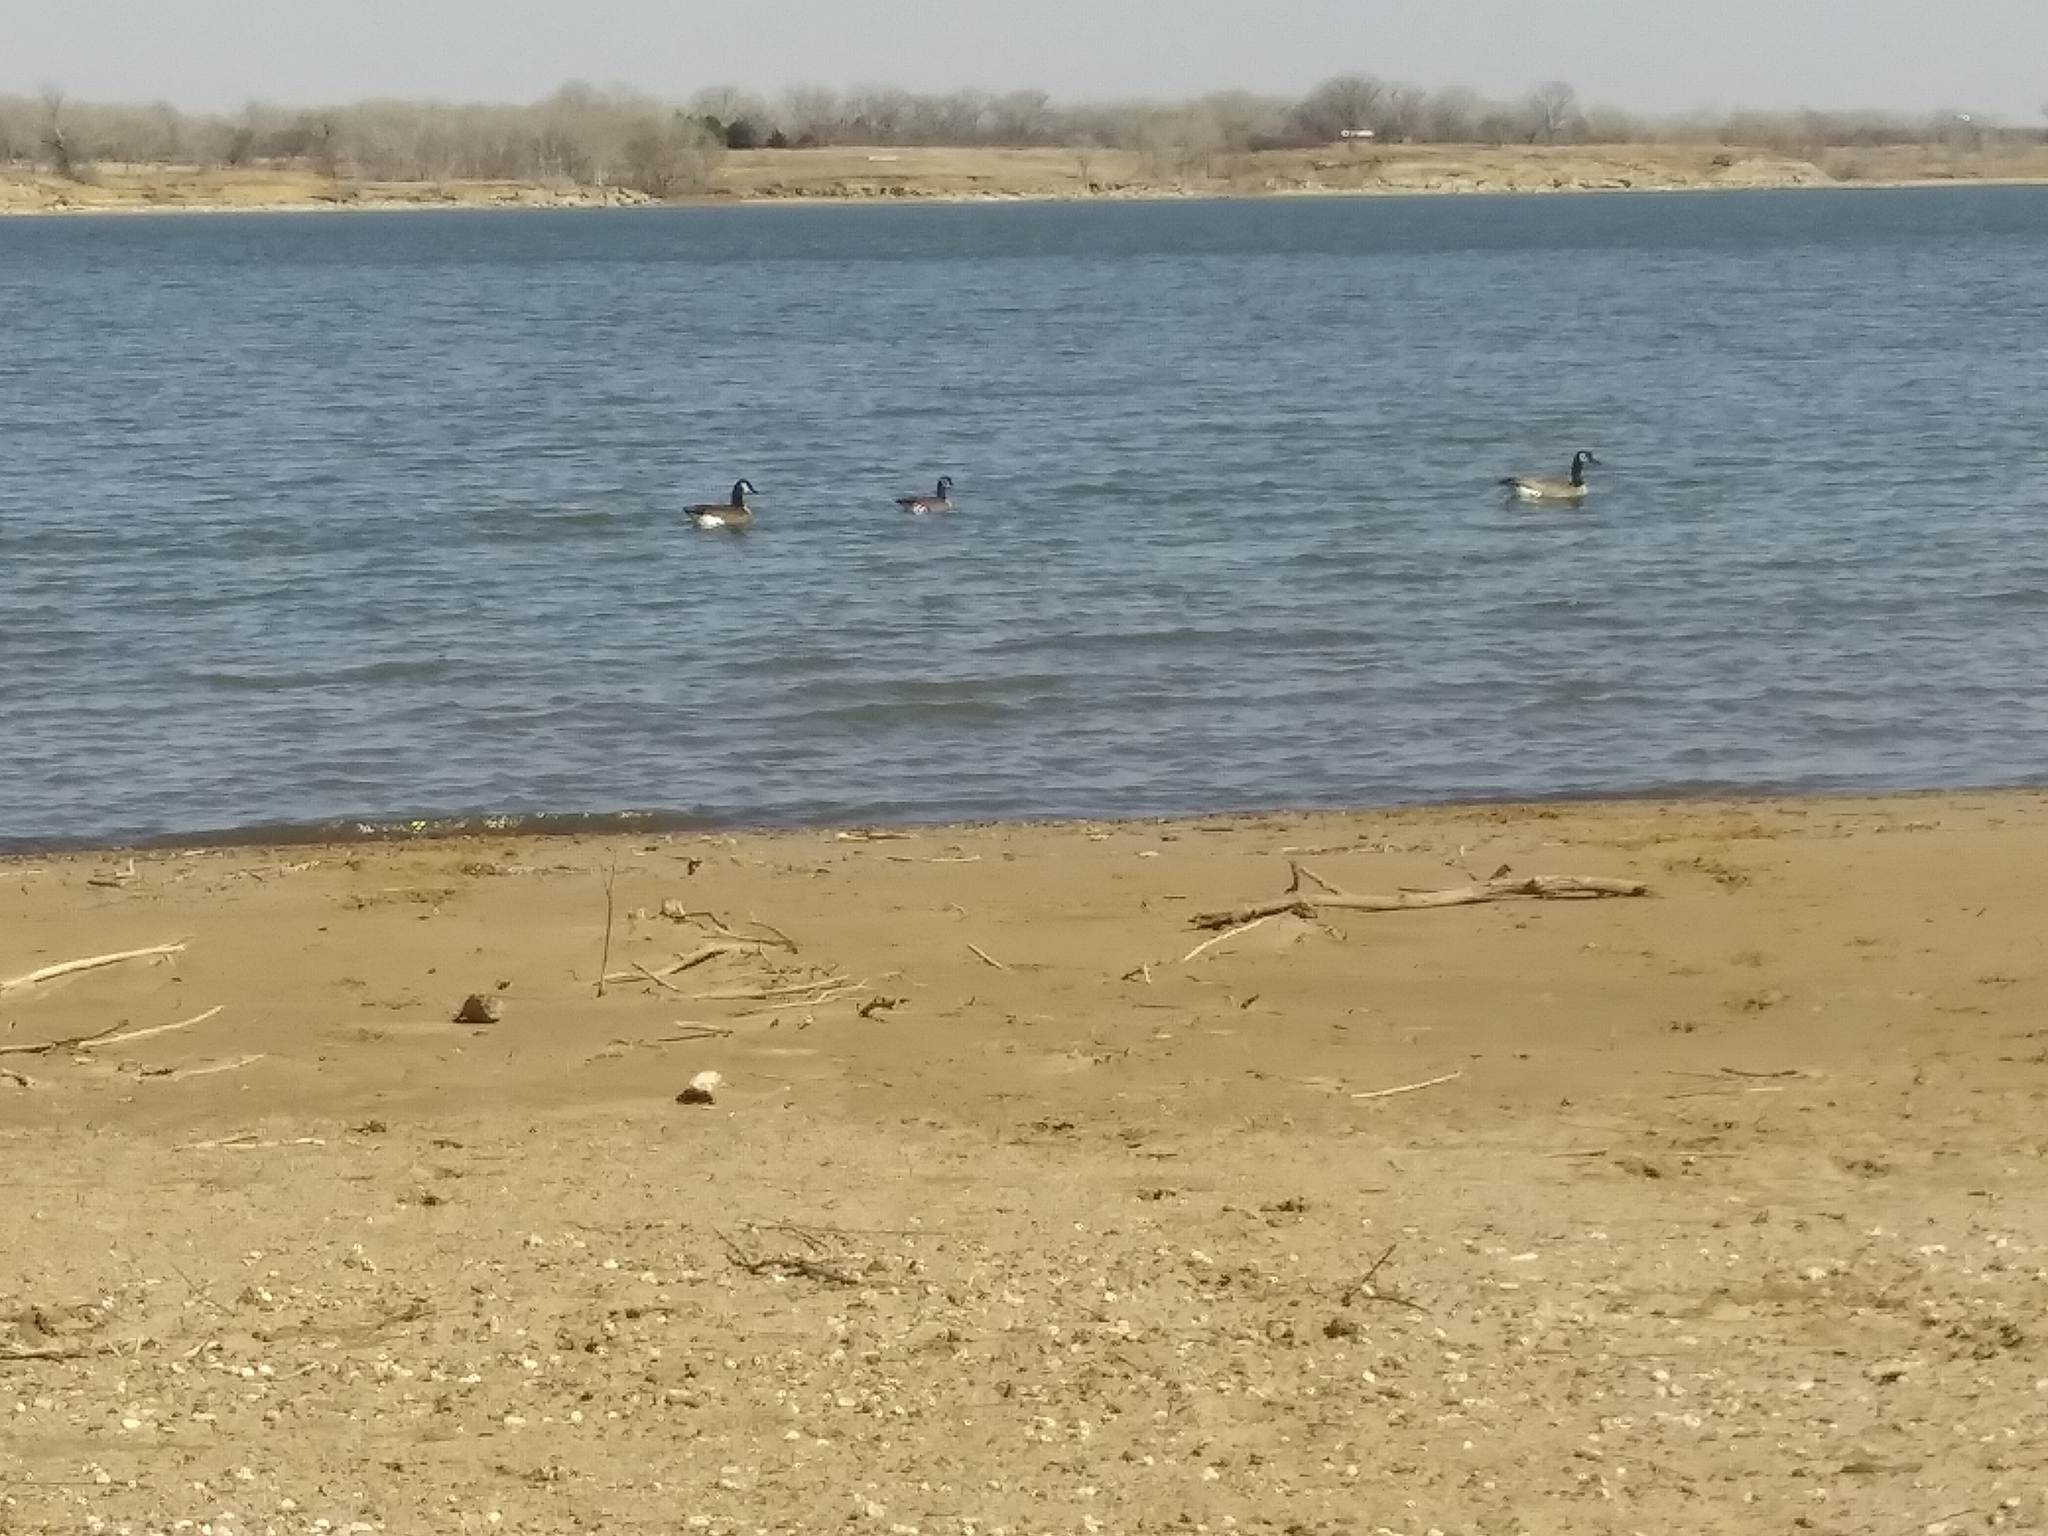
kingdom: Animalia
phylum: Chordata
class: Aves
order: Anseriformes
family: Anatidae
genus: Branta
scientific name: Branta canadensis
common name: Canada goose
